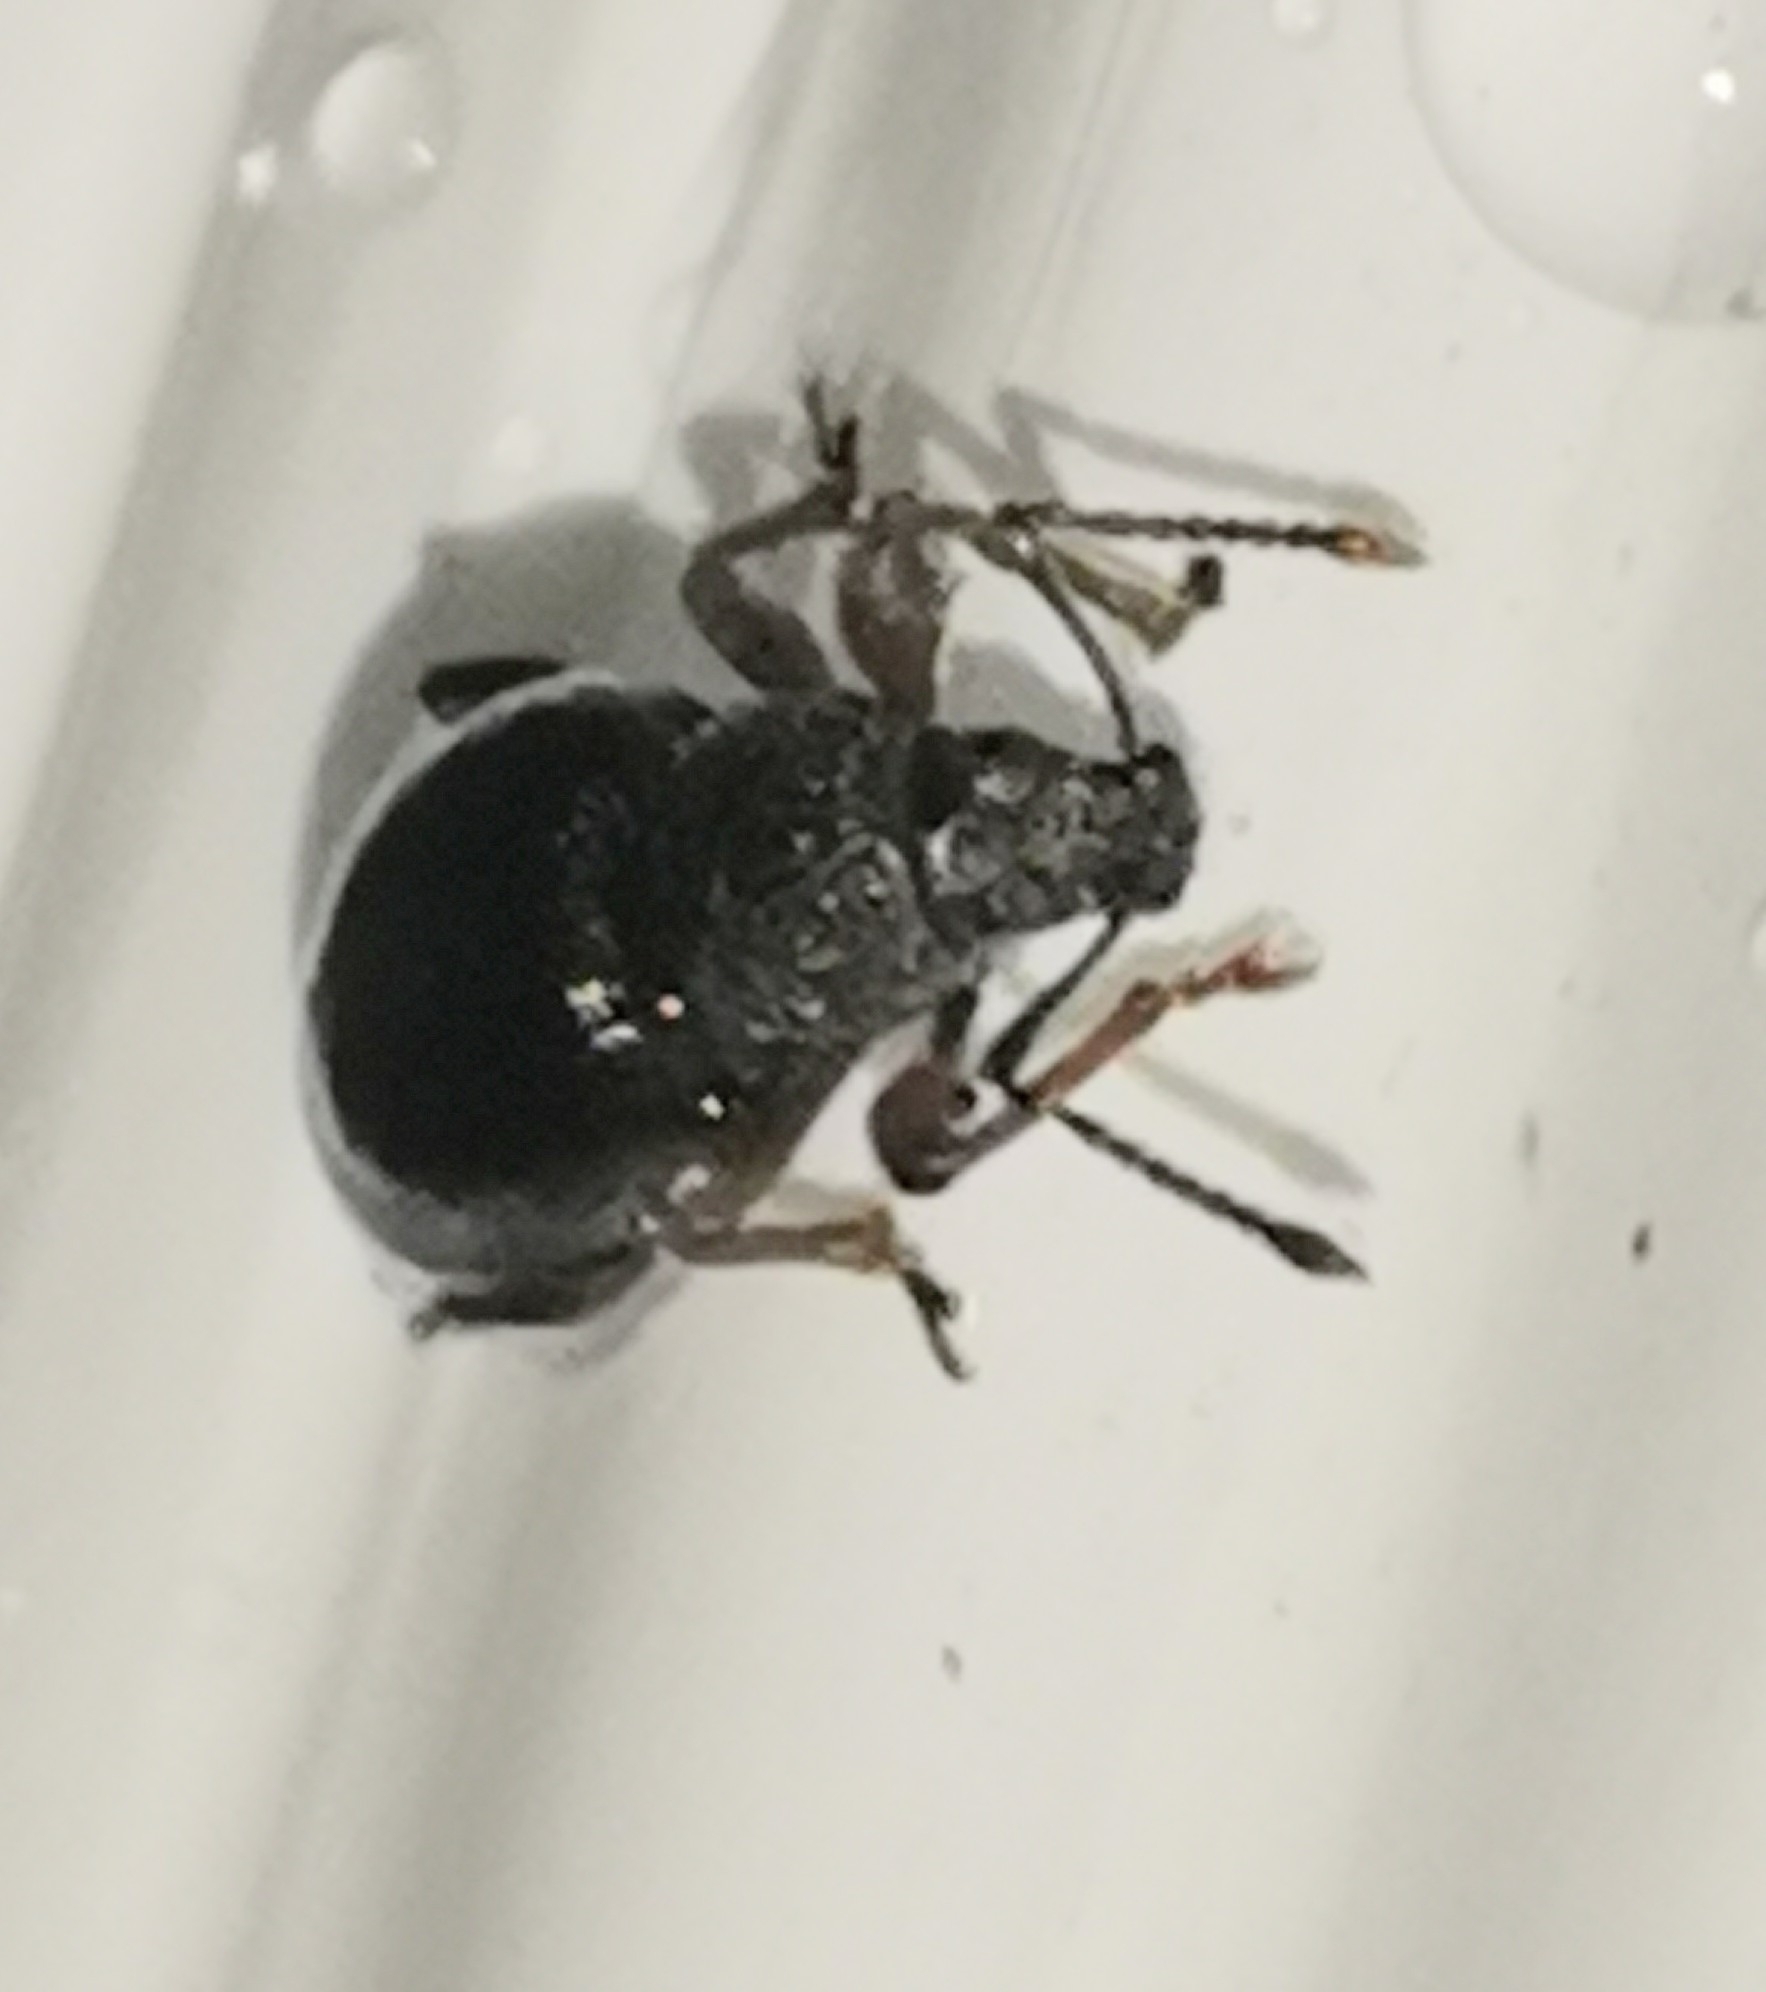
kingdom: Animalia
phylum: Arthropoda
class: Insecta
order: Coleoptera
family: Curculionidae
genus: Otiorhynchus
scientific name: Otiorhynchus ovatus
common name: Strawberry root weevil
